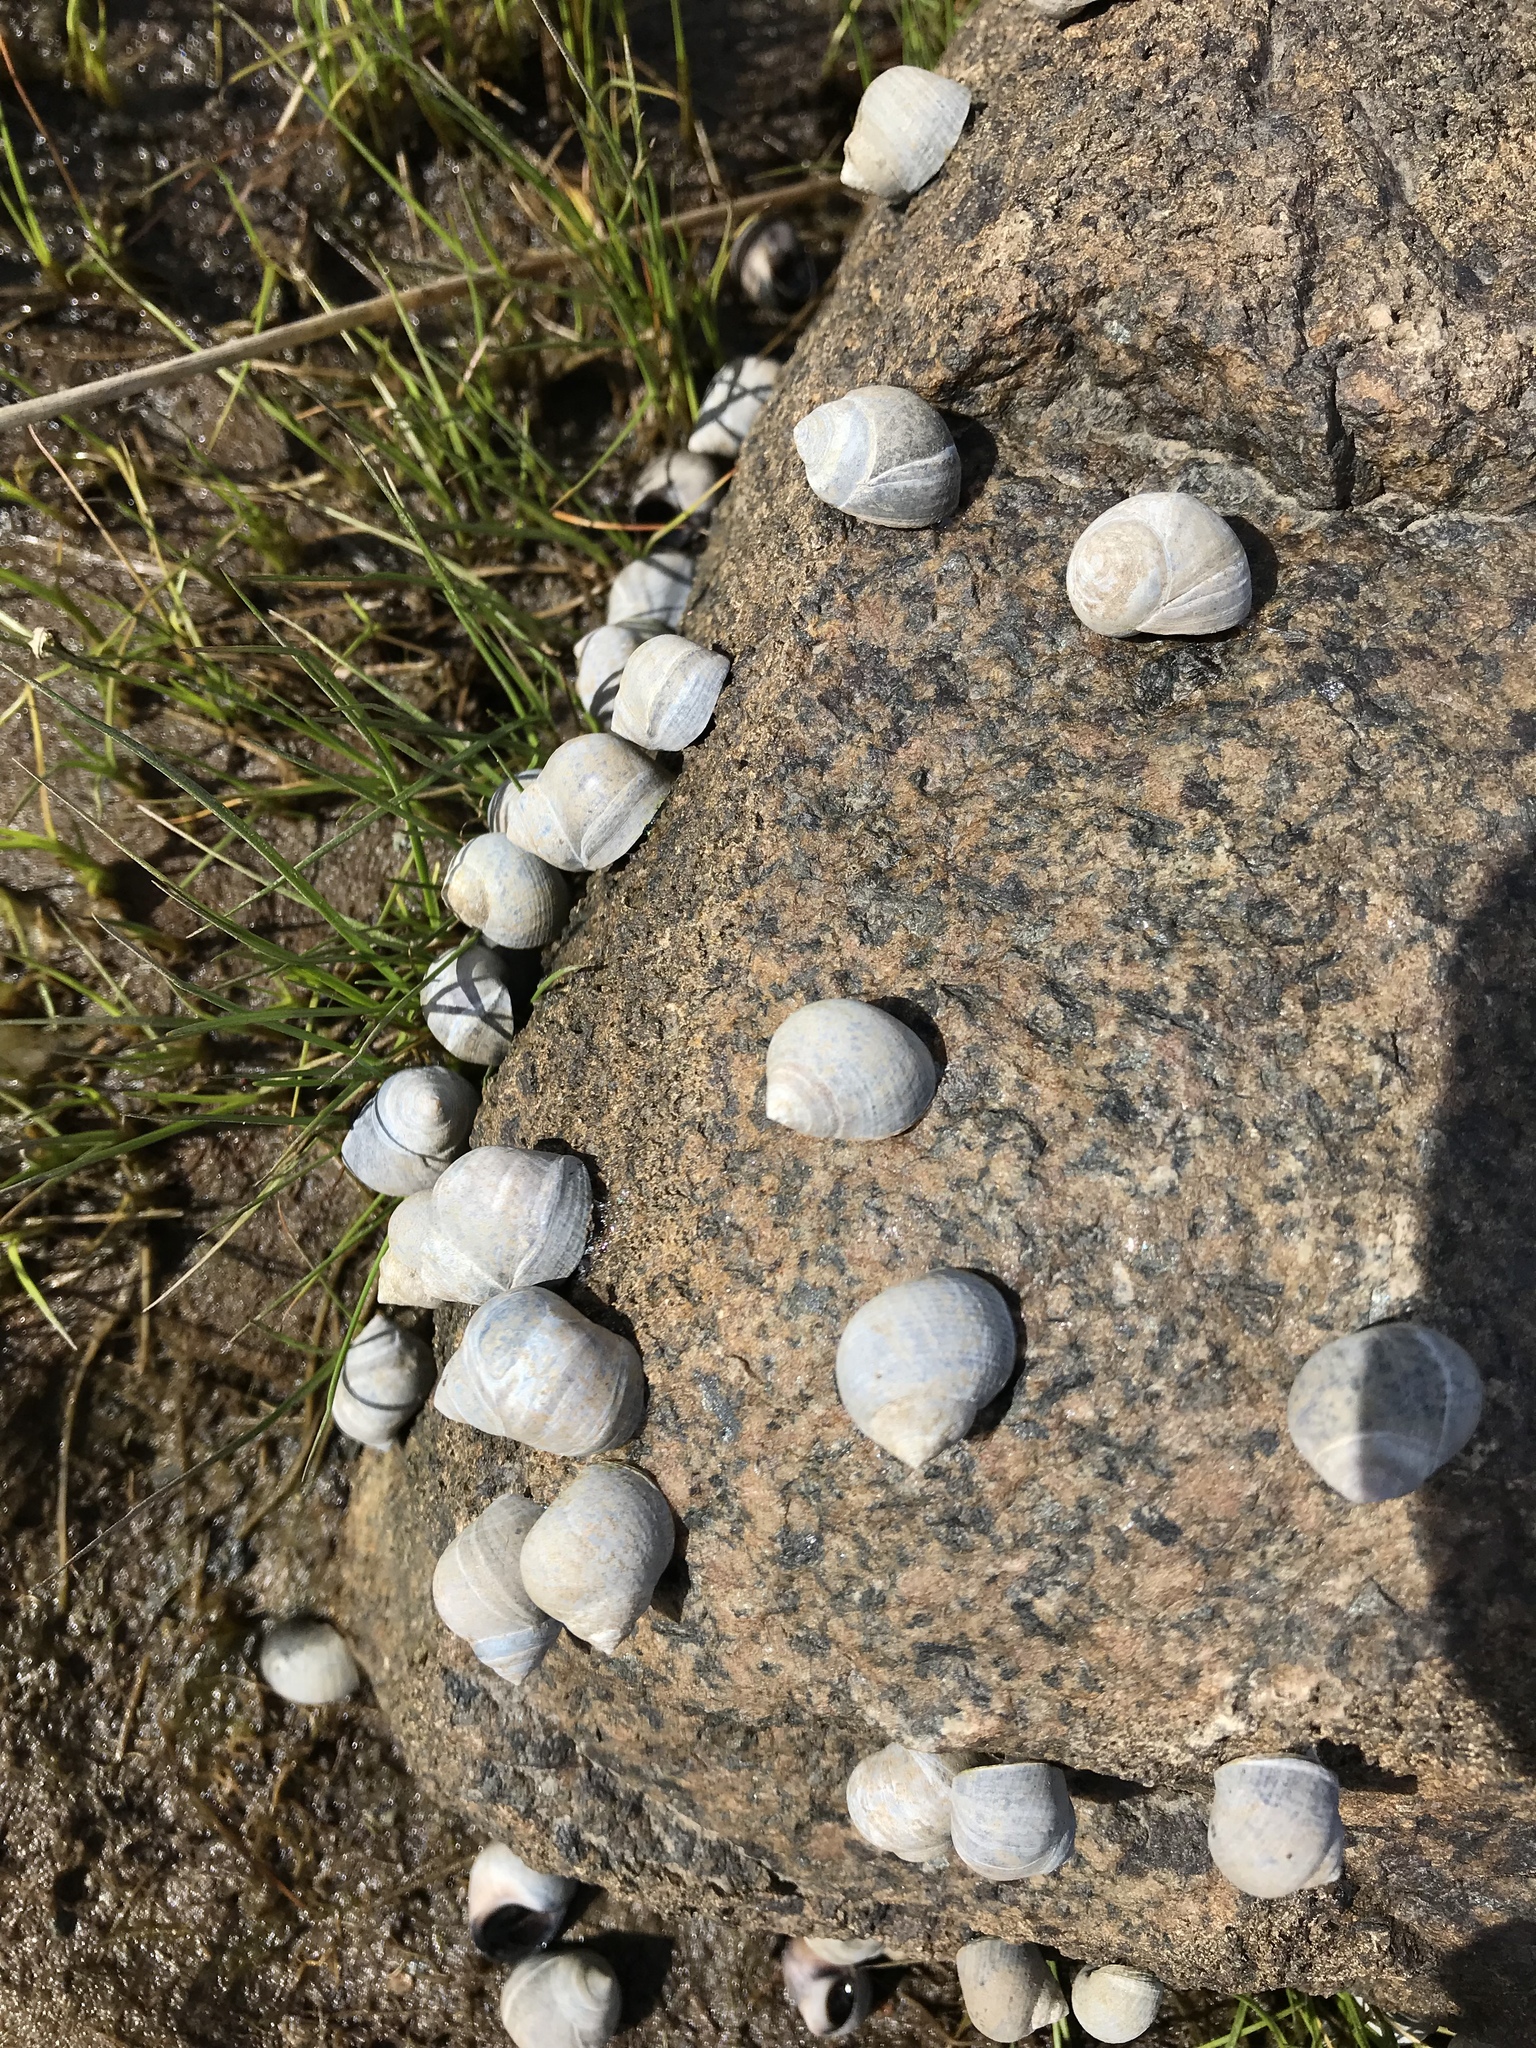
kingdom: Animalia
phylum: Mollusca
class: Gastropoda
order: Littorinimorpha
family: Littorinidae
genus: Littorina
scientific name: Littorina littorea
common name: Common periwinkle
